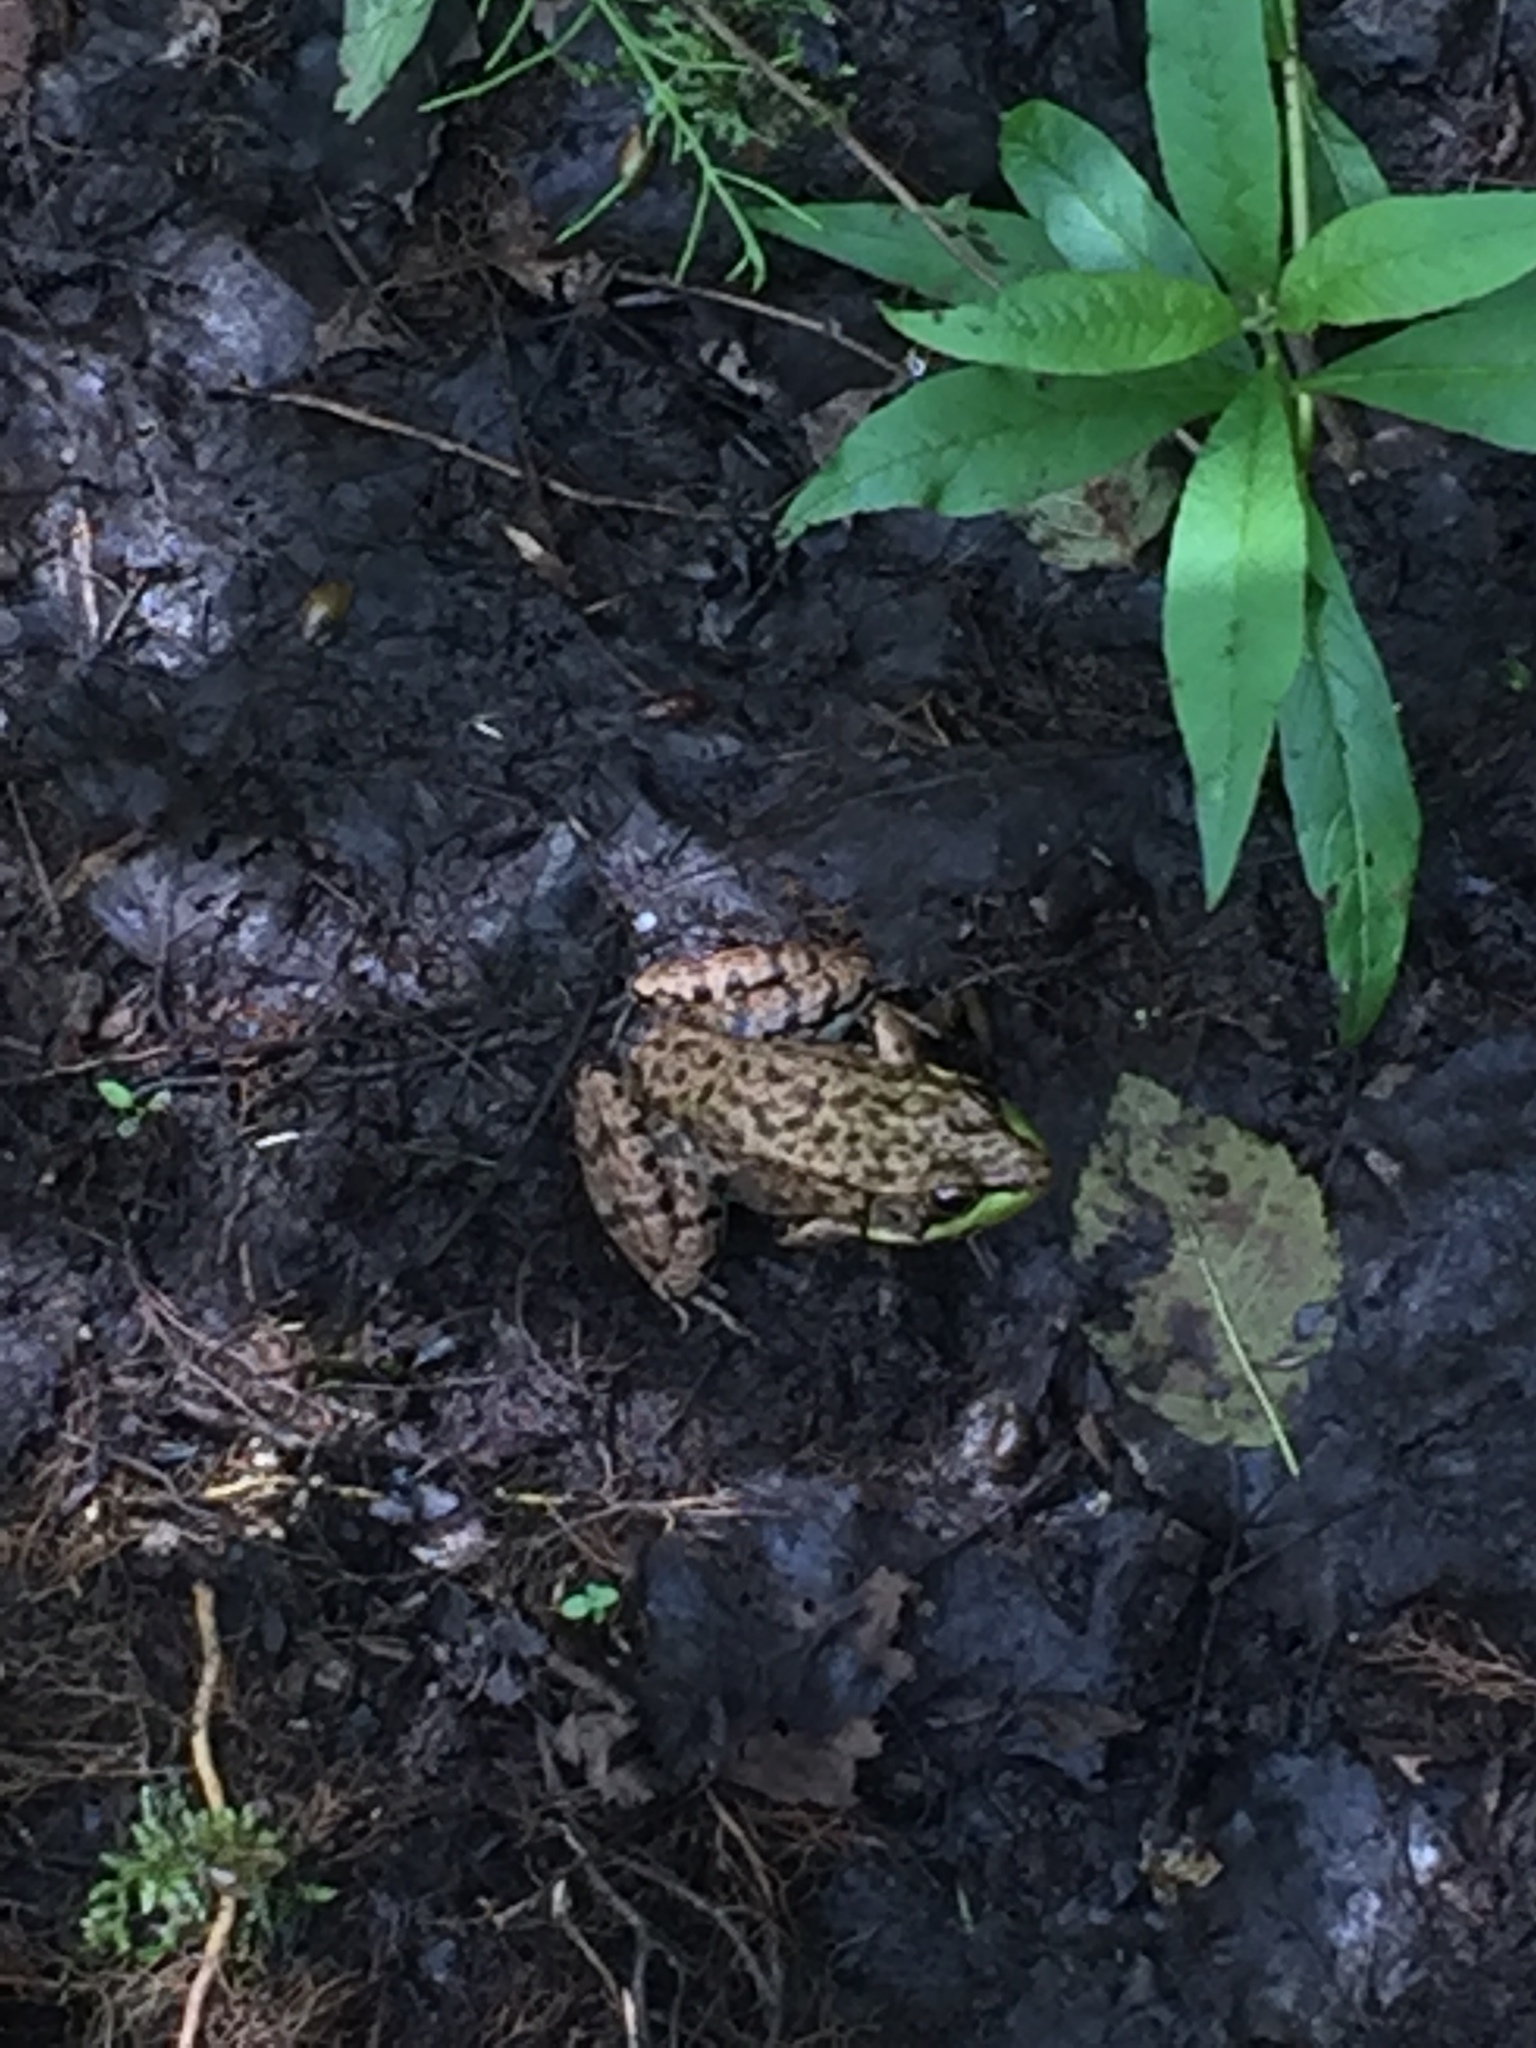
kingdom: Animalia
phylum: Chordata
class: Amphibia
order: Anura
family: Ranidae
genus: Lithobates
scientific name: Lithobates clamitans
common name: Green frog
